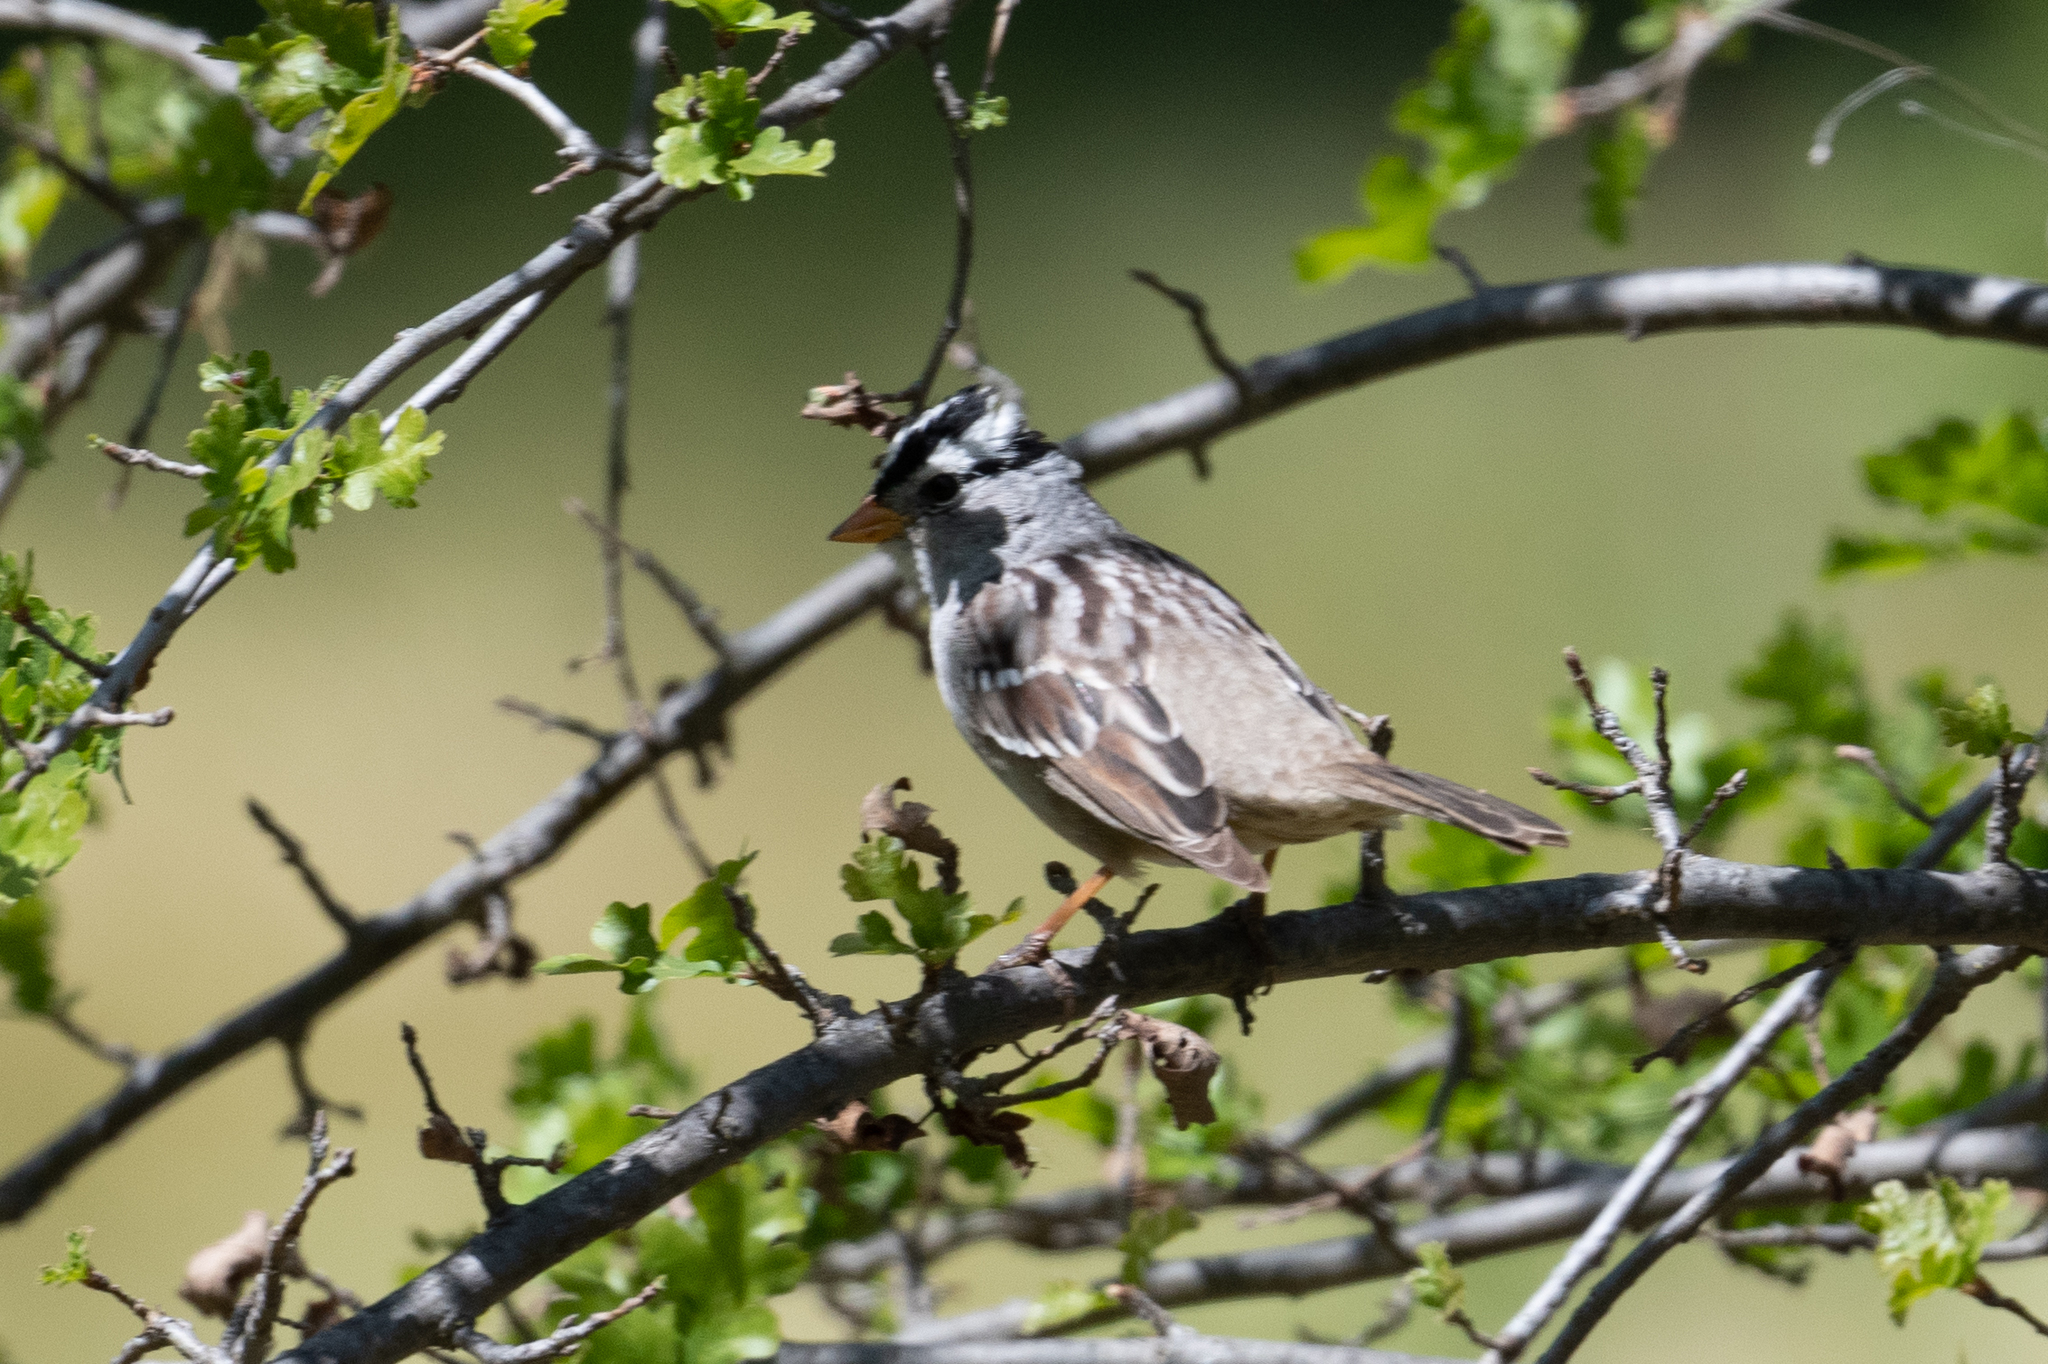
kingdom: Animalia
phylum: Chordata
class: Aves
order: Passeriformes
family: Passerellidae
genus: Zonotrichia
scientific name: Zonotrichia leucophrys
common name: White-crowned sparrow
